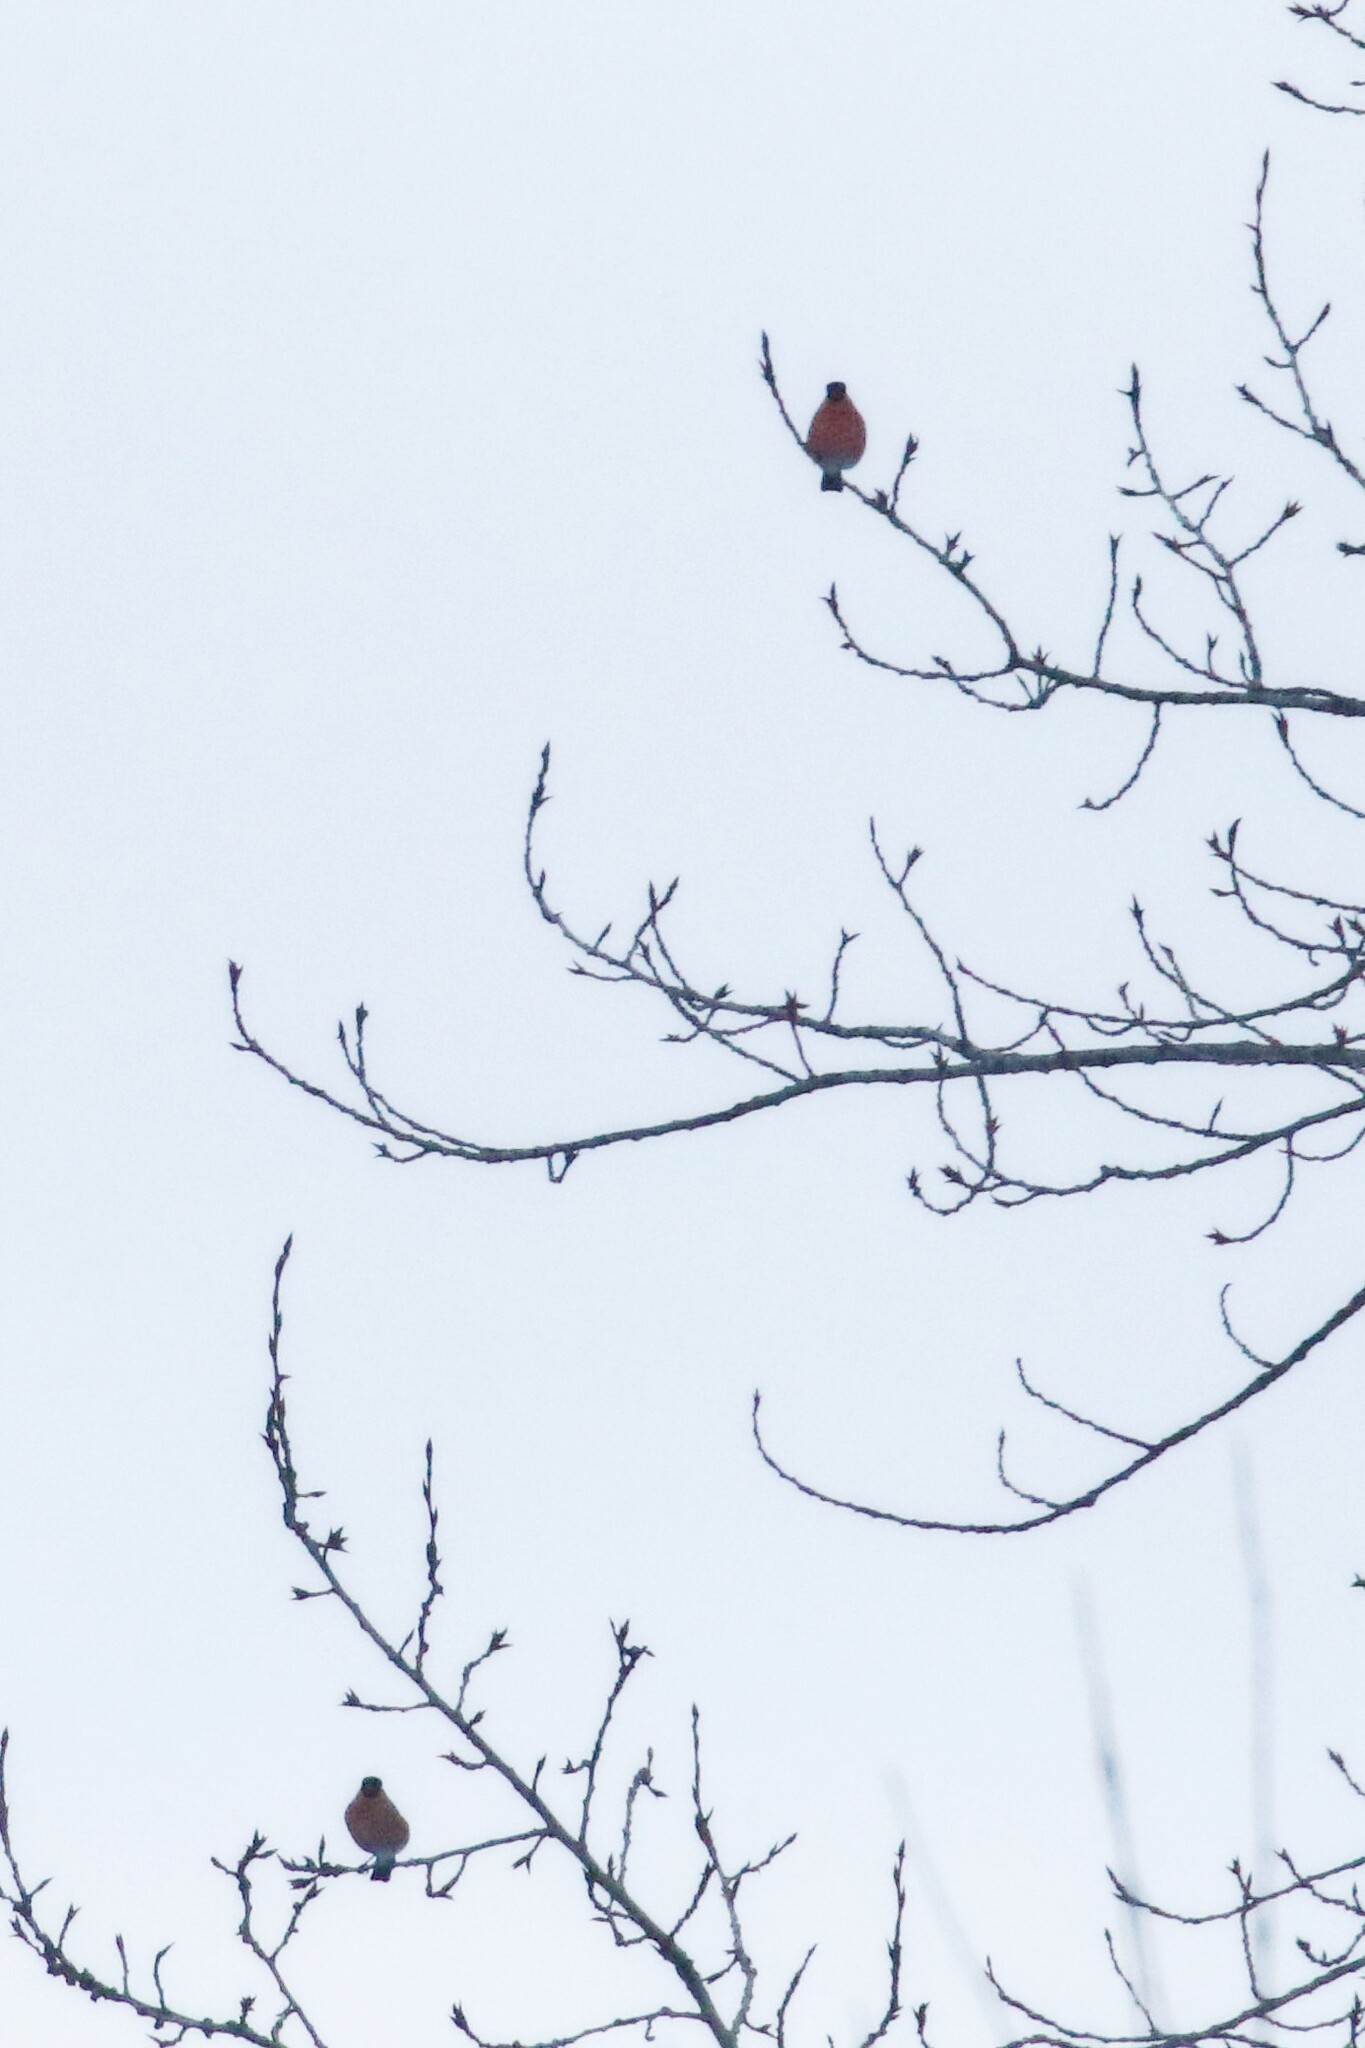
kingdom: Animalia
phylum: Chordata
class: Aves
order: Passeriformes
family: Fringillidae
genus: Pyrrhula
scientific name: Pyrrhula pyrrhula
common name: Eurasian bullfinch
